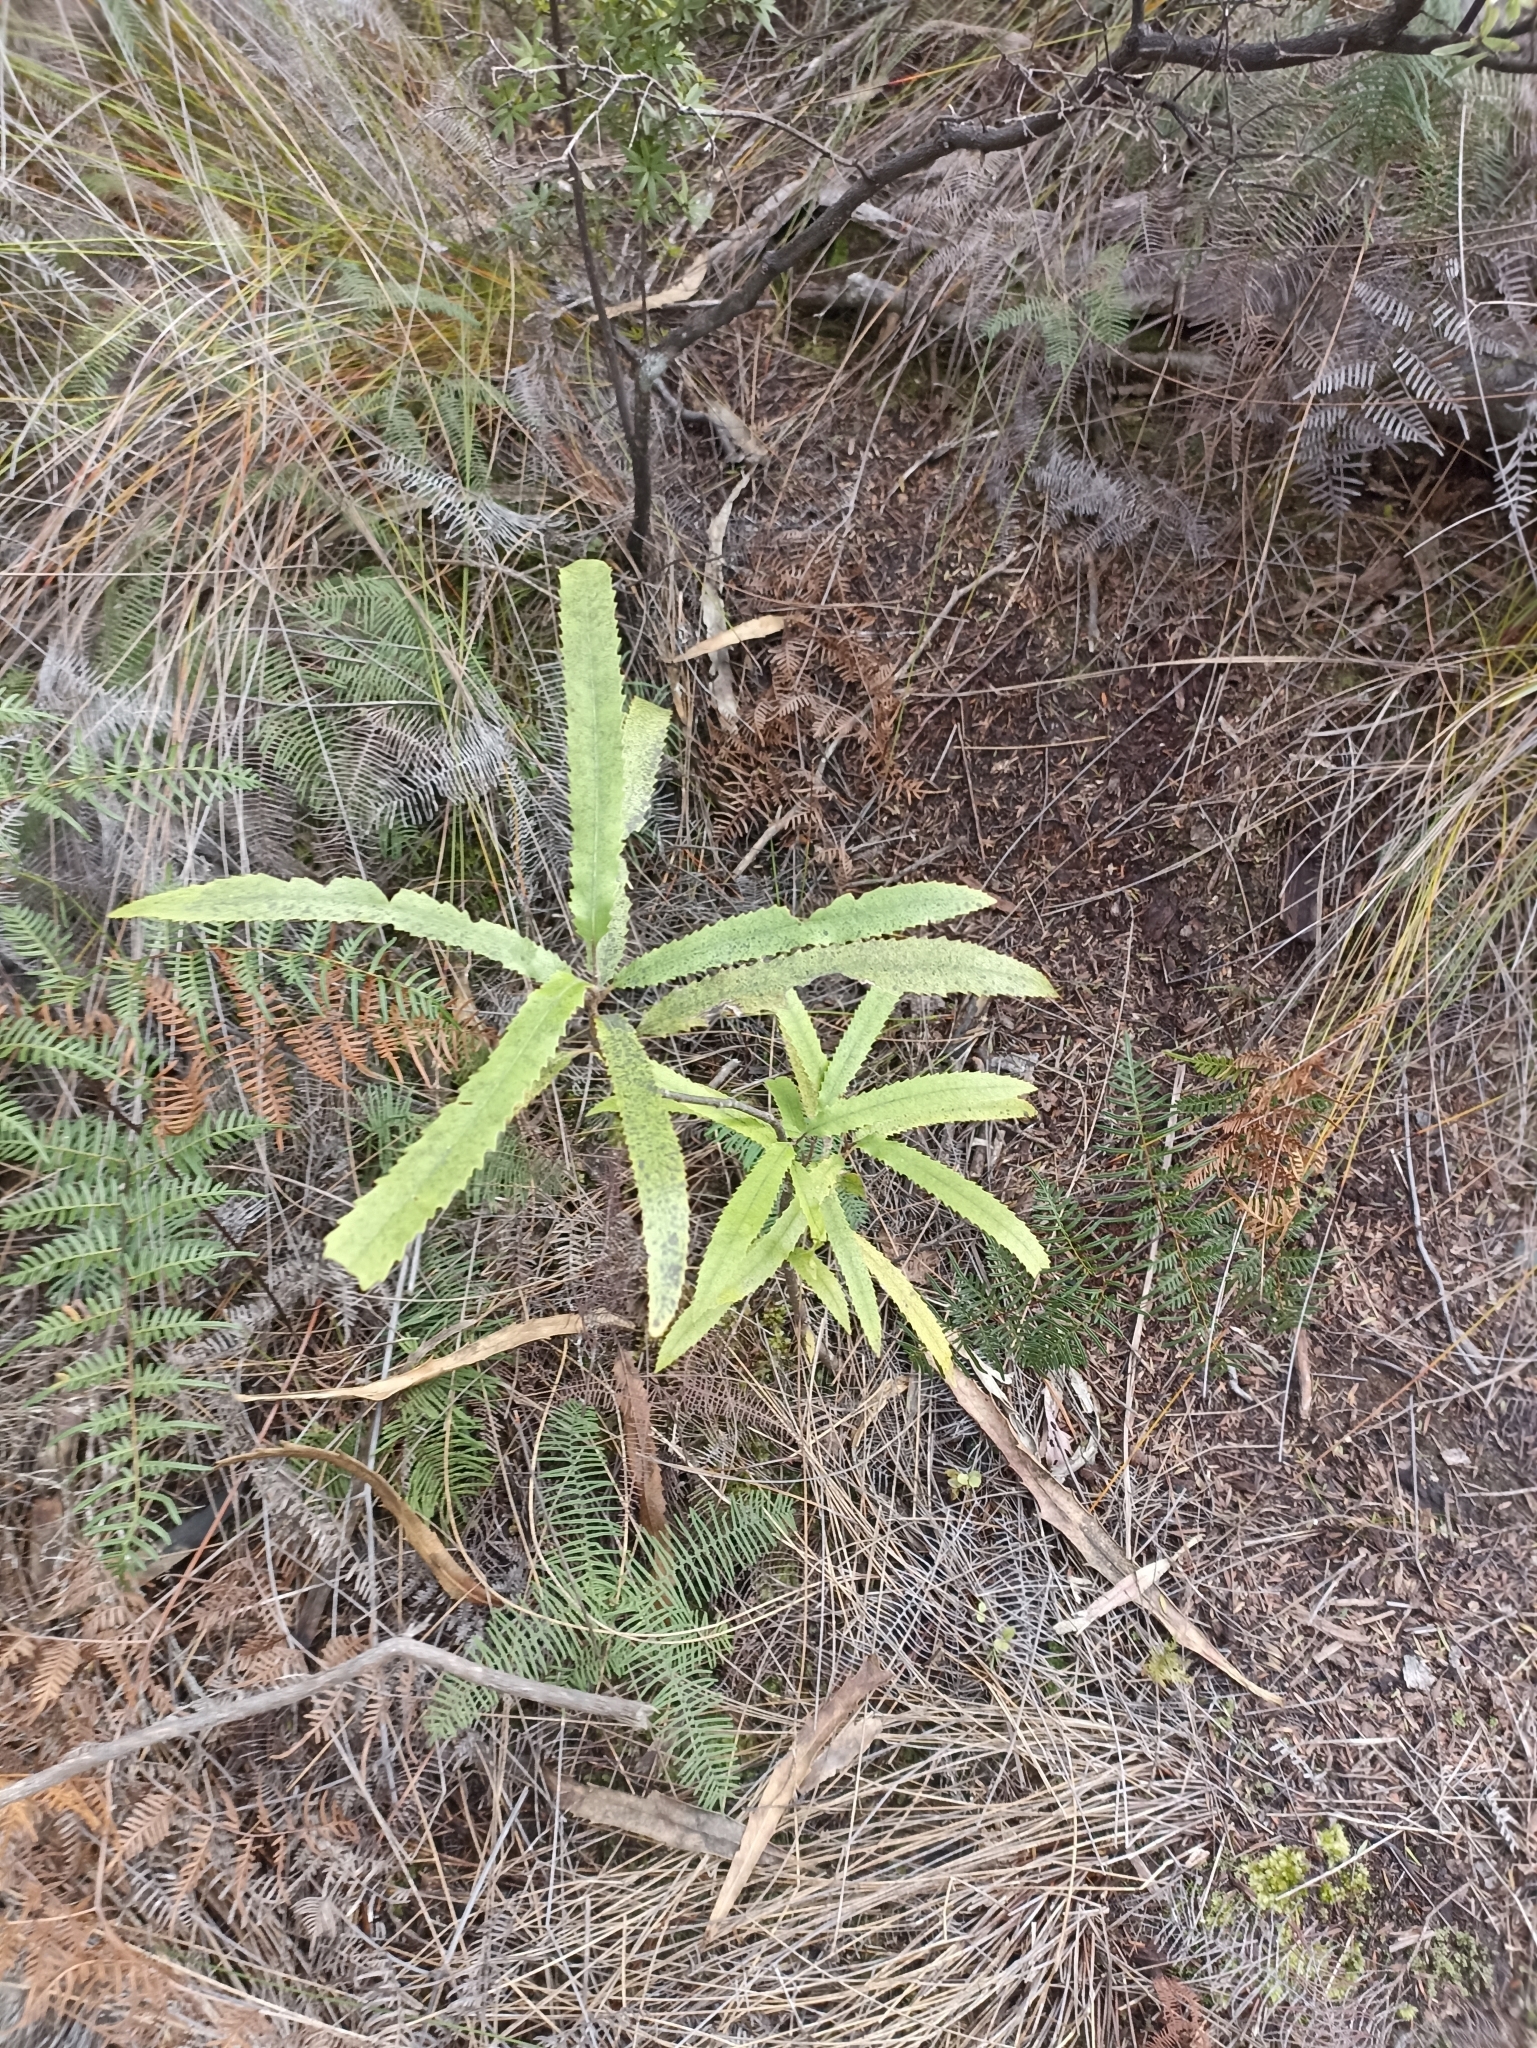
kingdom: Plantae
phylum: Tracheophyta
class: Magnoliopsida
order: Proteales
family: Proteaceae
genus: Knightia
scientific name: Knightia excelsa
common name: New zealand-honeysuckle
